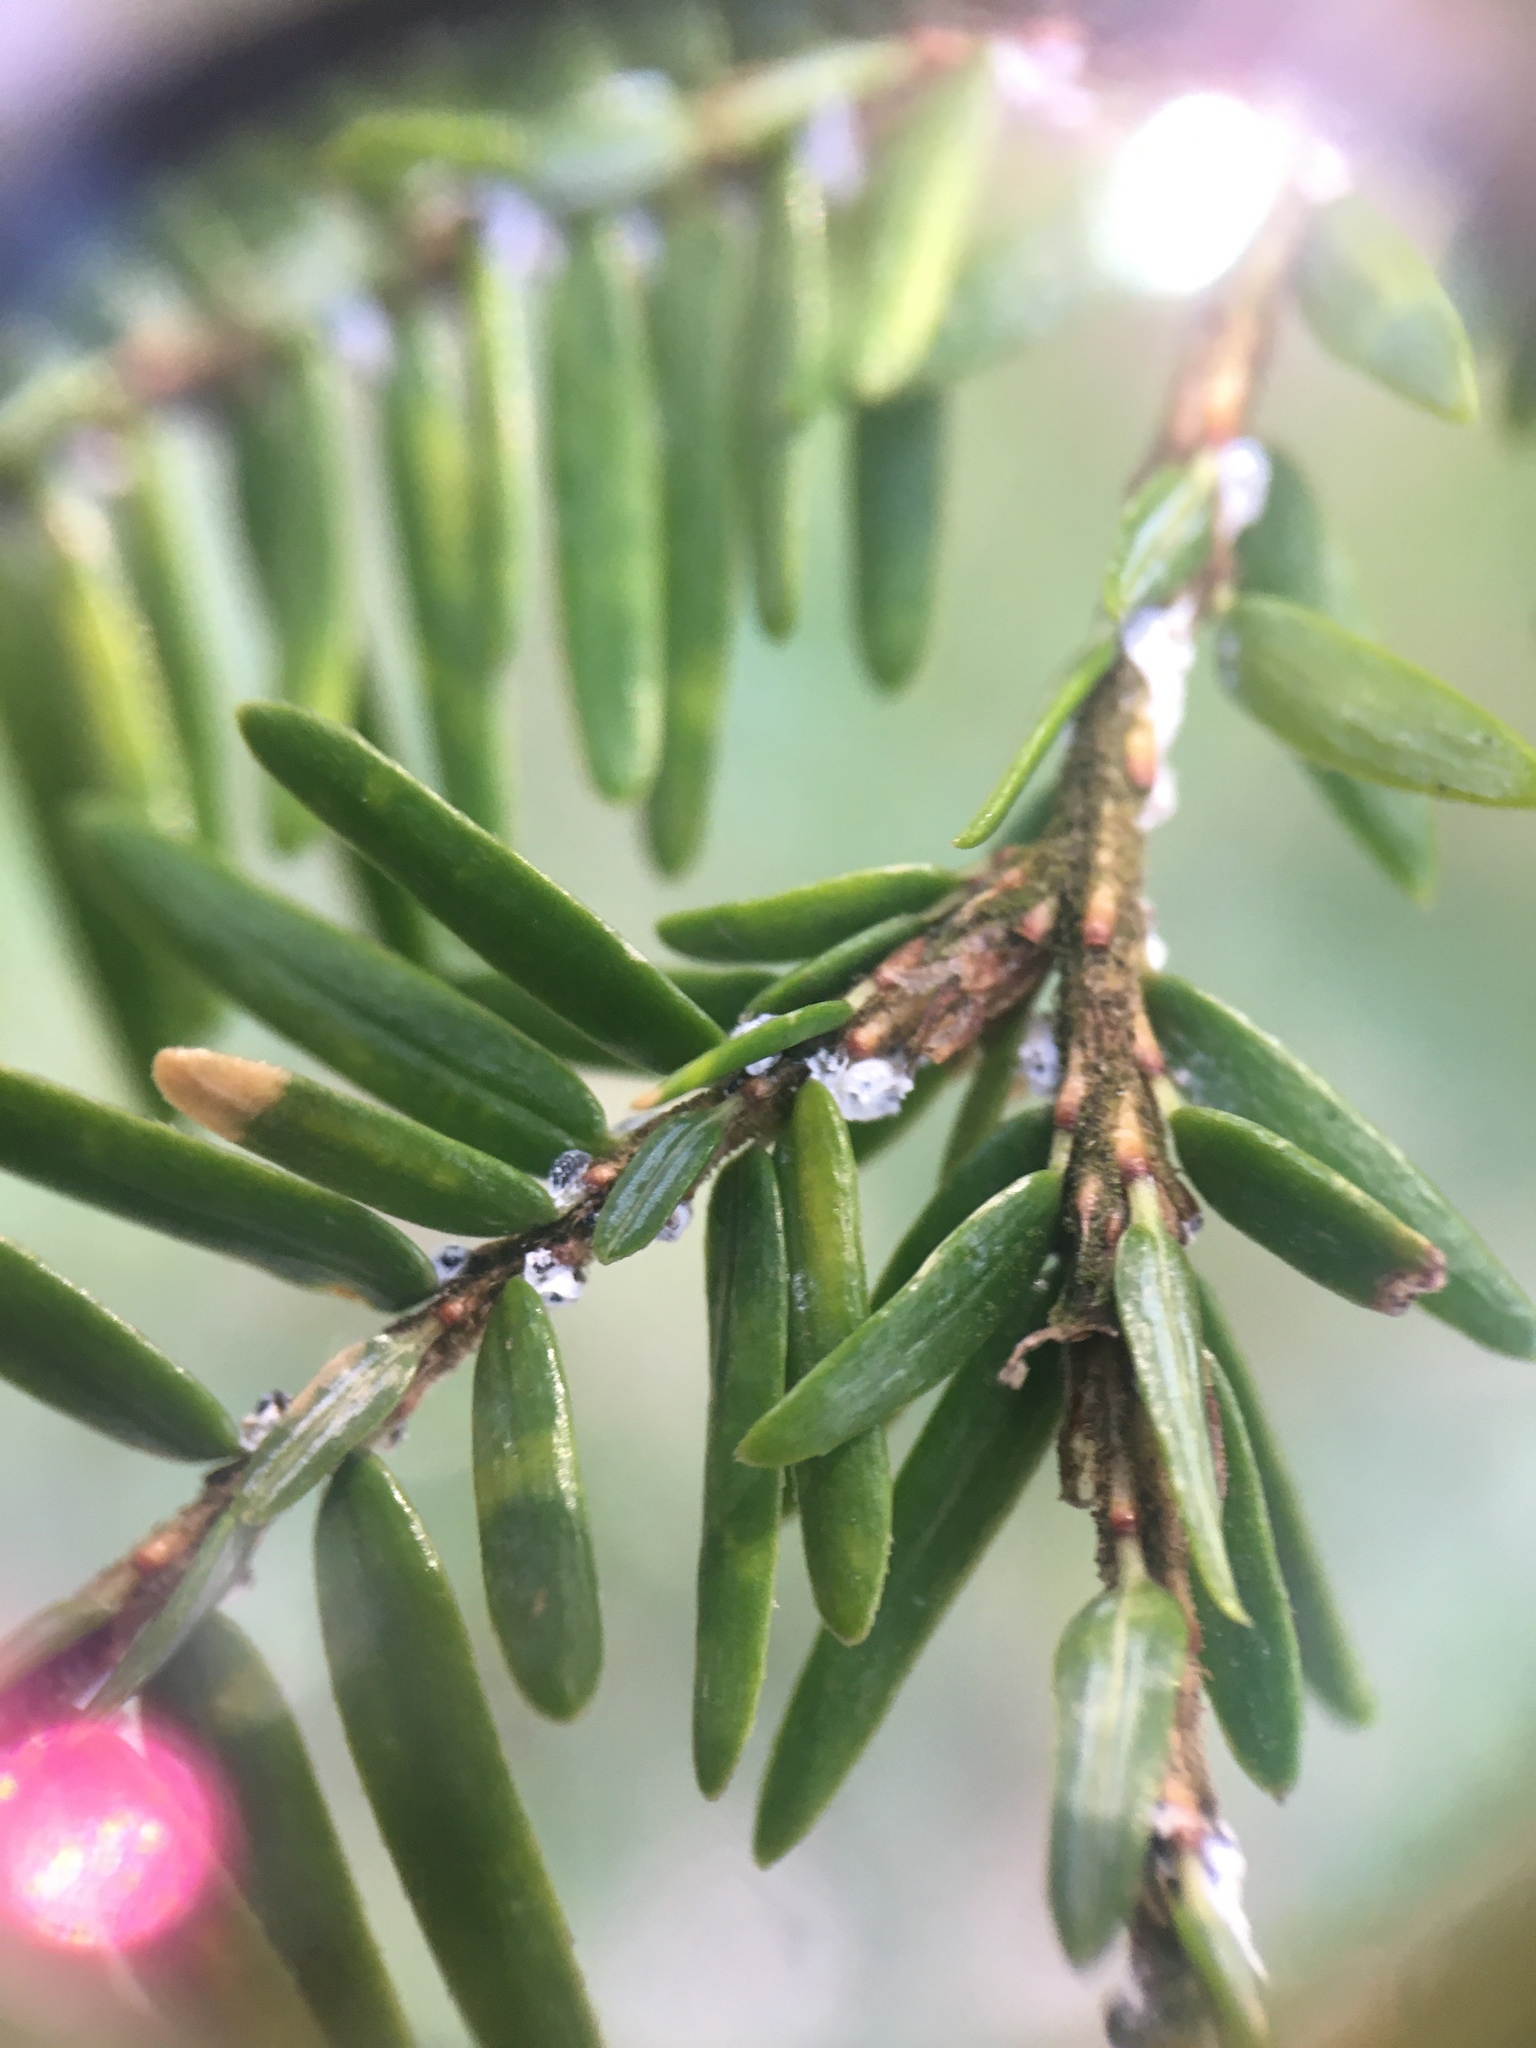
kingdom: Animalia
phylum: Arthropoda
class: Insecta
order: Hemiptera
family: Adelgidae
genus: Adelges
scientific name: Adelges tsugae
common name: Hemlock woolly adelgid
